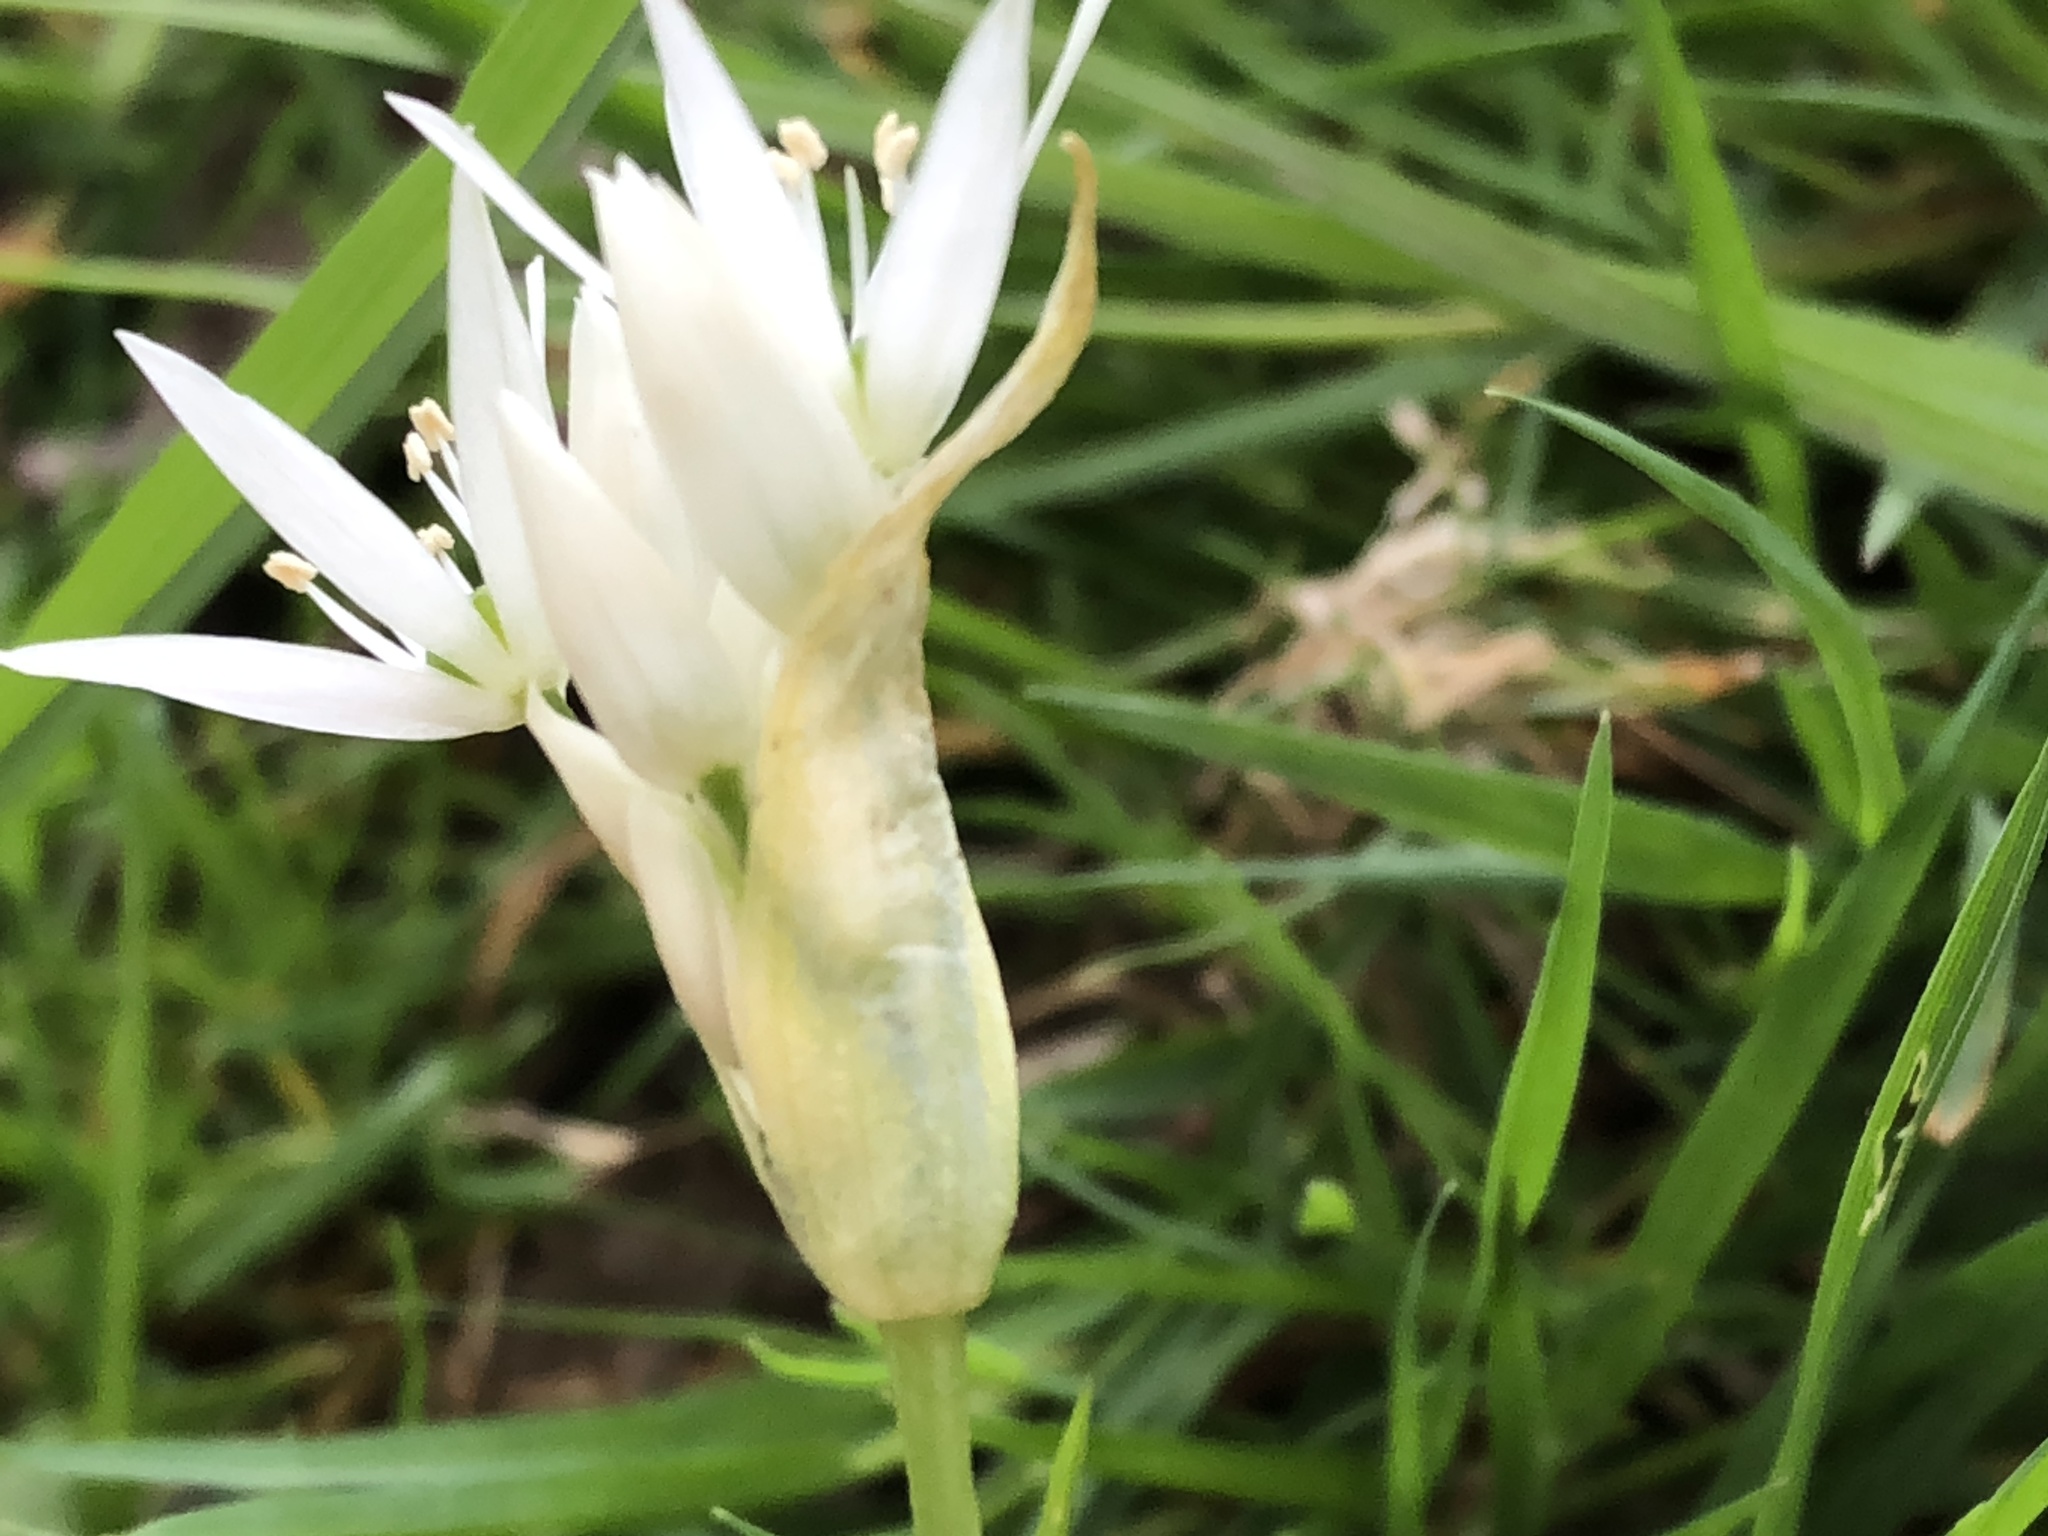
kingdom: Plantae
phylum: Tracheophyta
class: Liliopsida
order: Asparagales
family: Amaryllidaceae
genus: Allium
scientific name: Allium ursinum
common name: Ramsons
